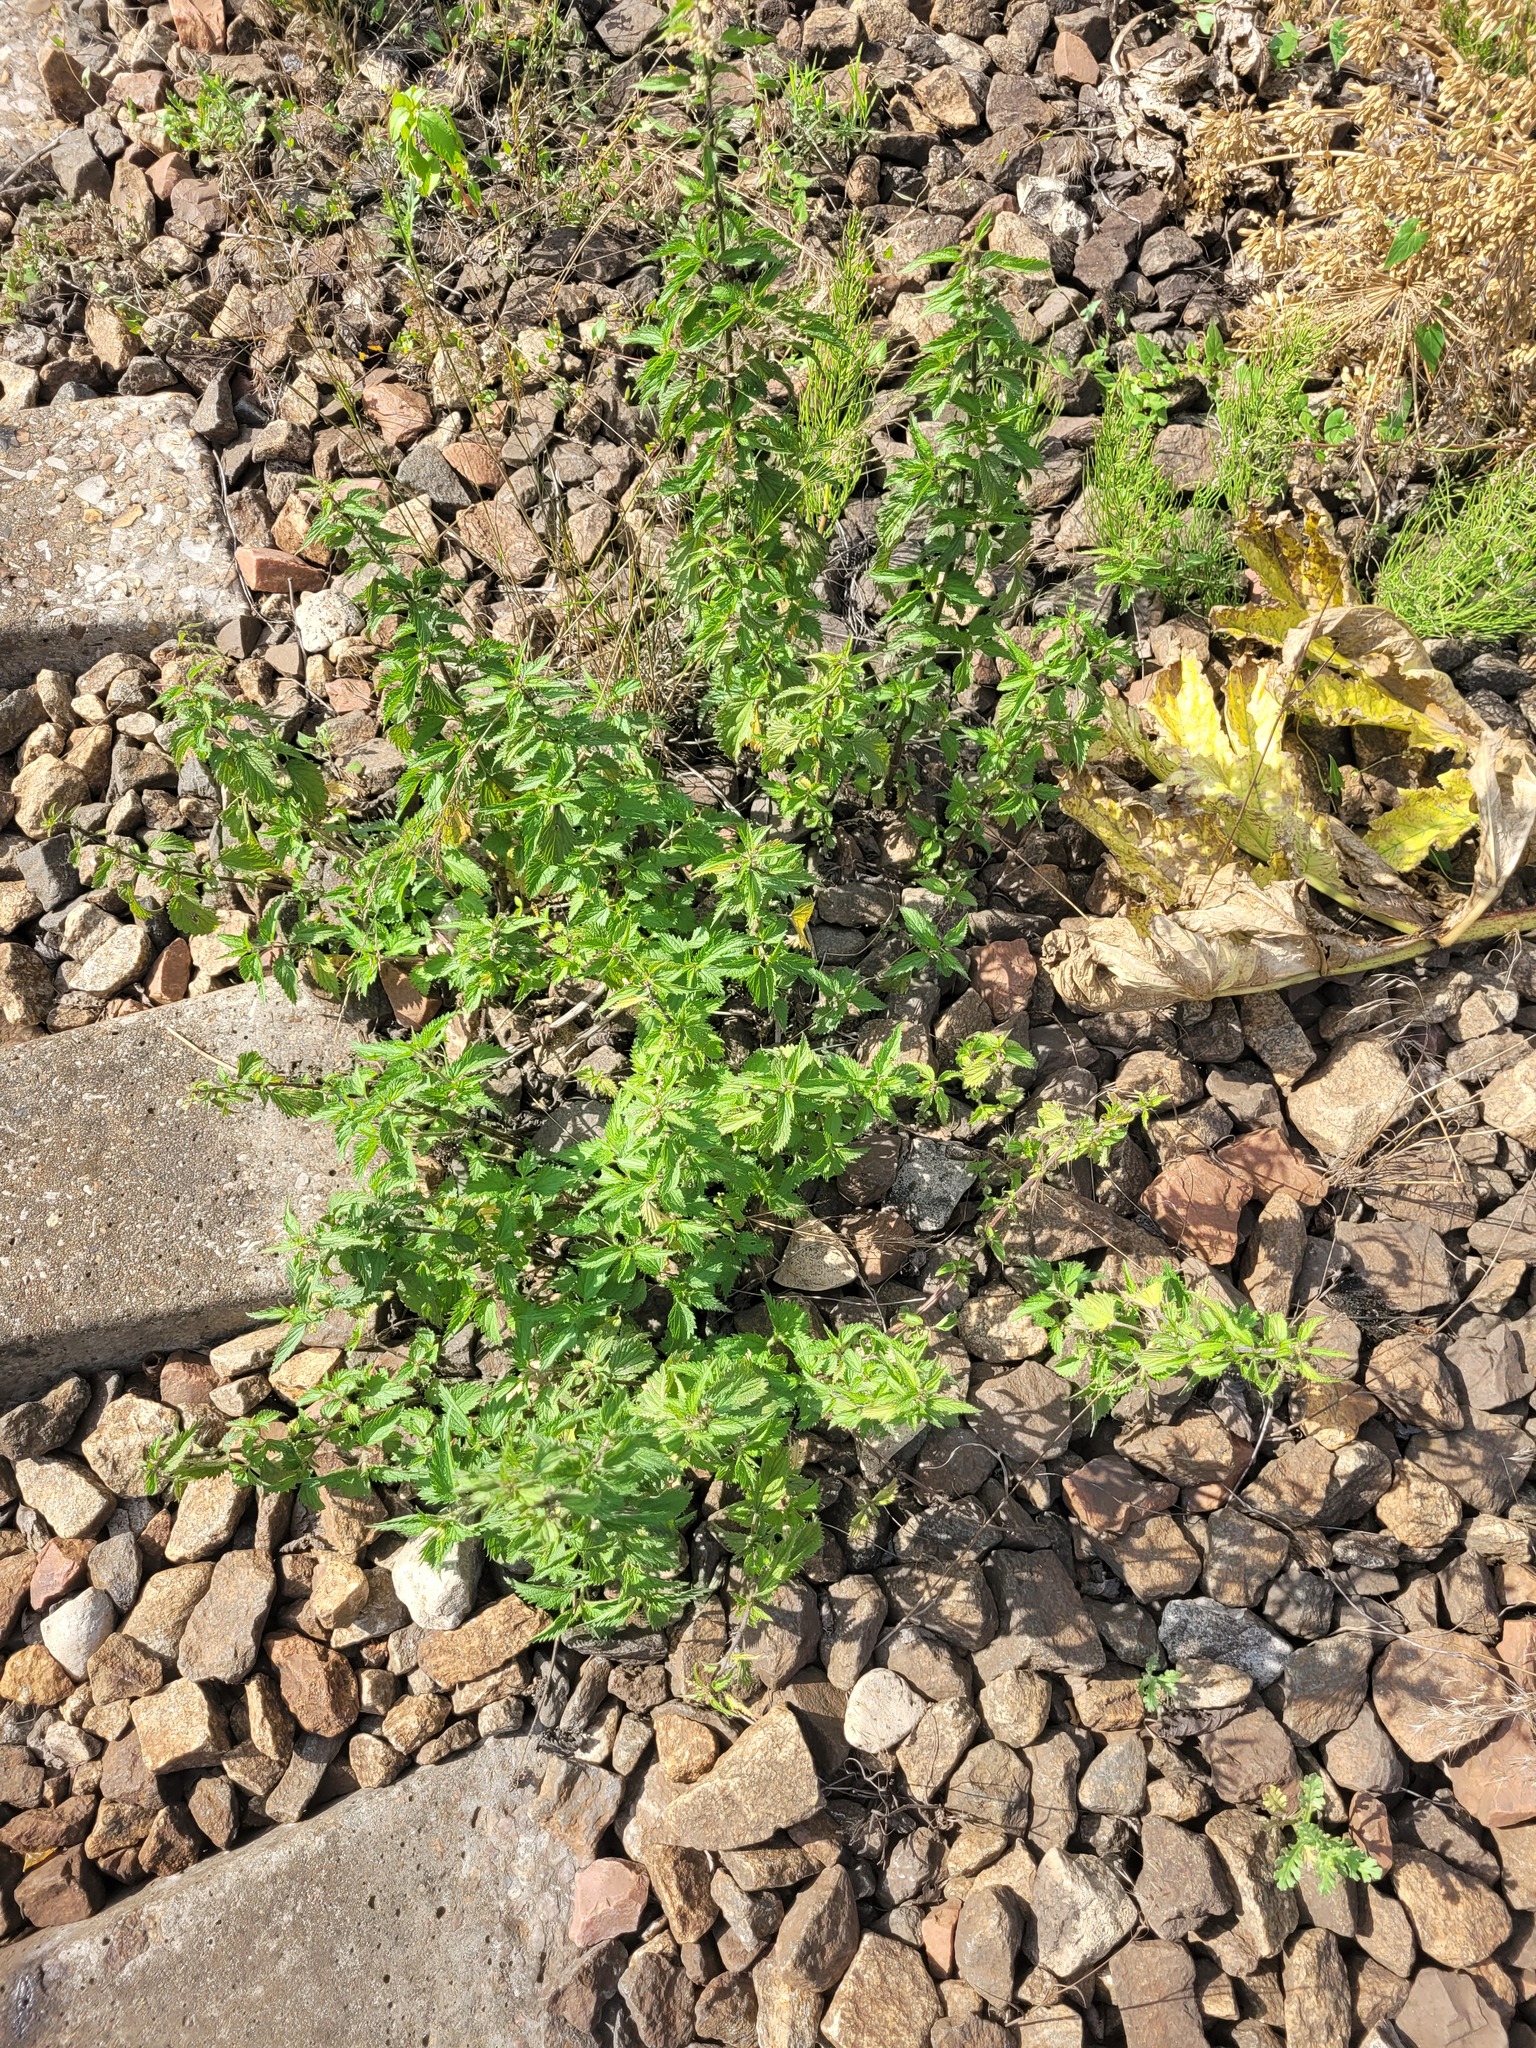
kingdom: Plantae
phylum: Tracheophyta
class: Magnoliopsida
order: Rosales
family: Urticaceae
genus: Urtica
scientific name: Urtica dioica
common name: Common nettle
